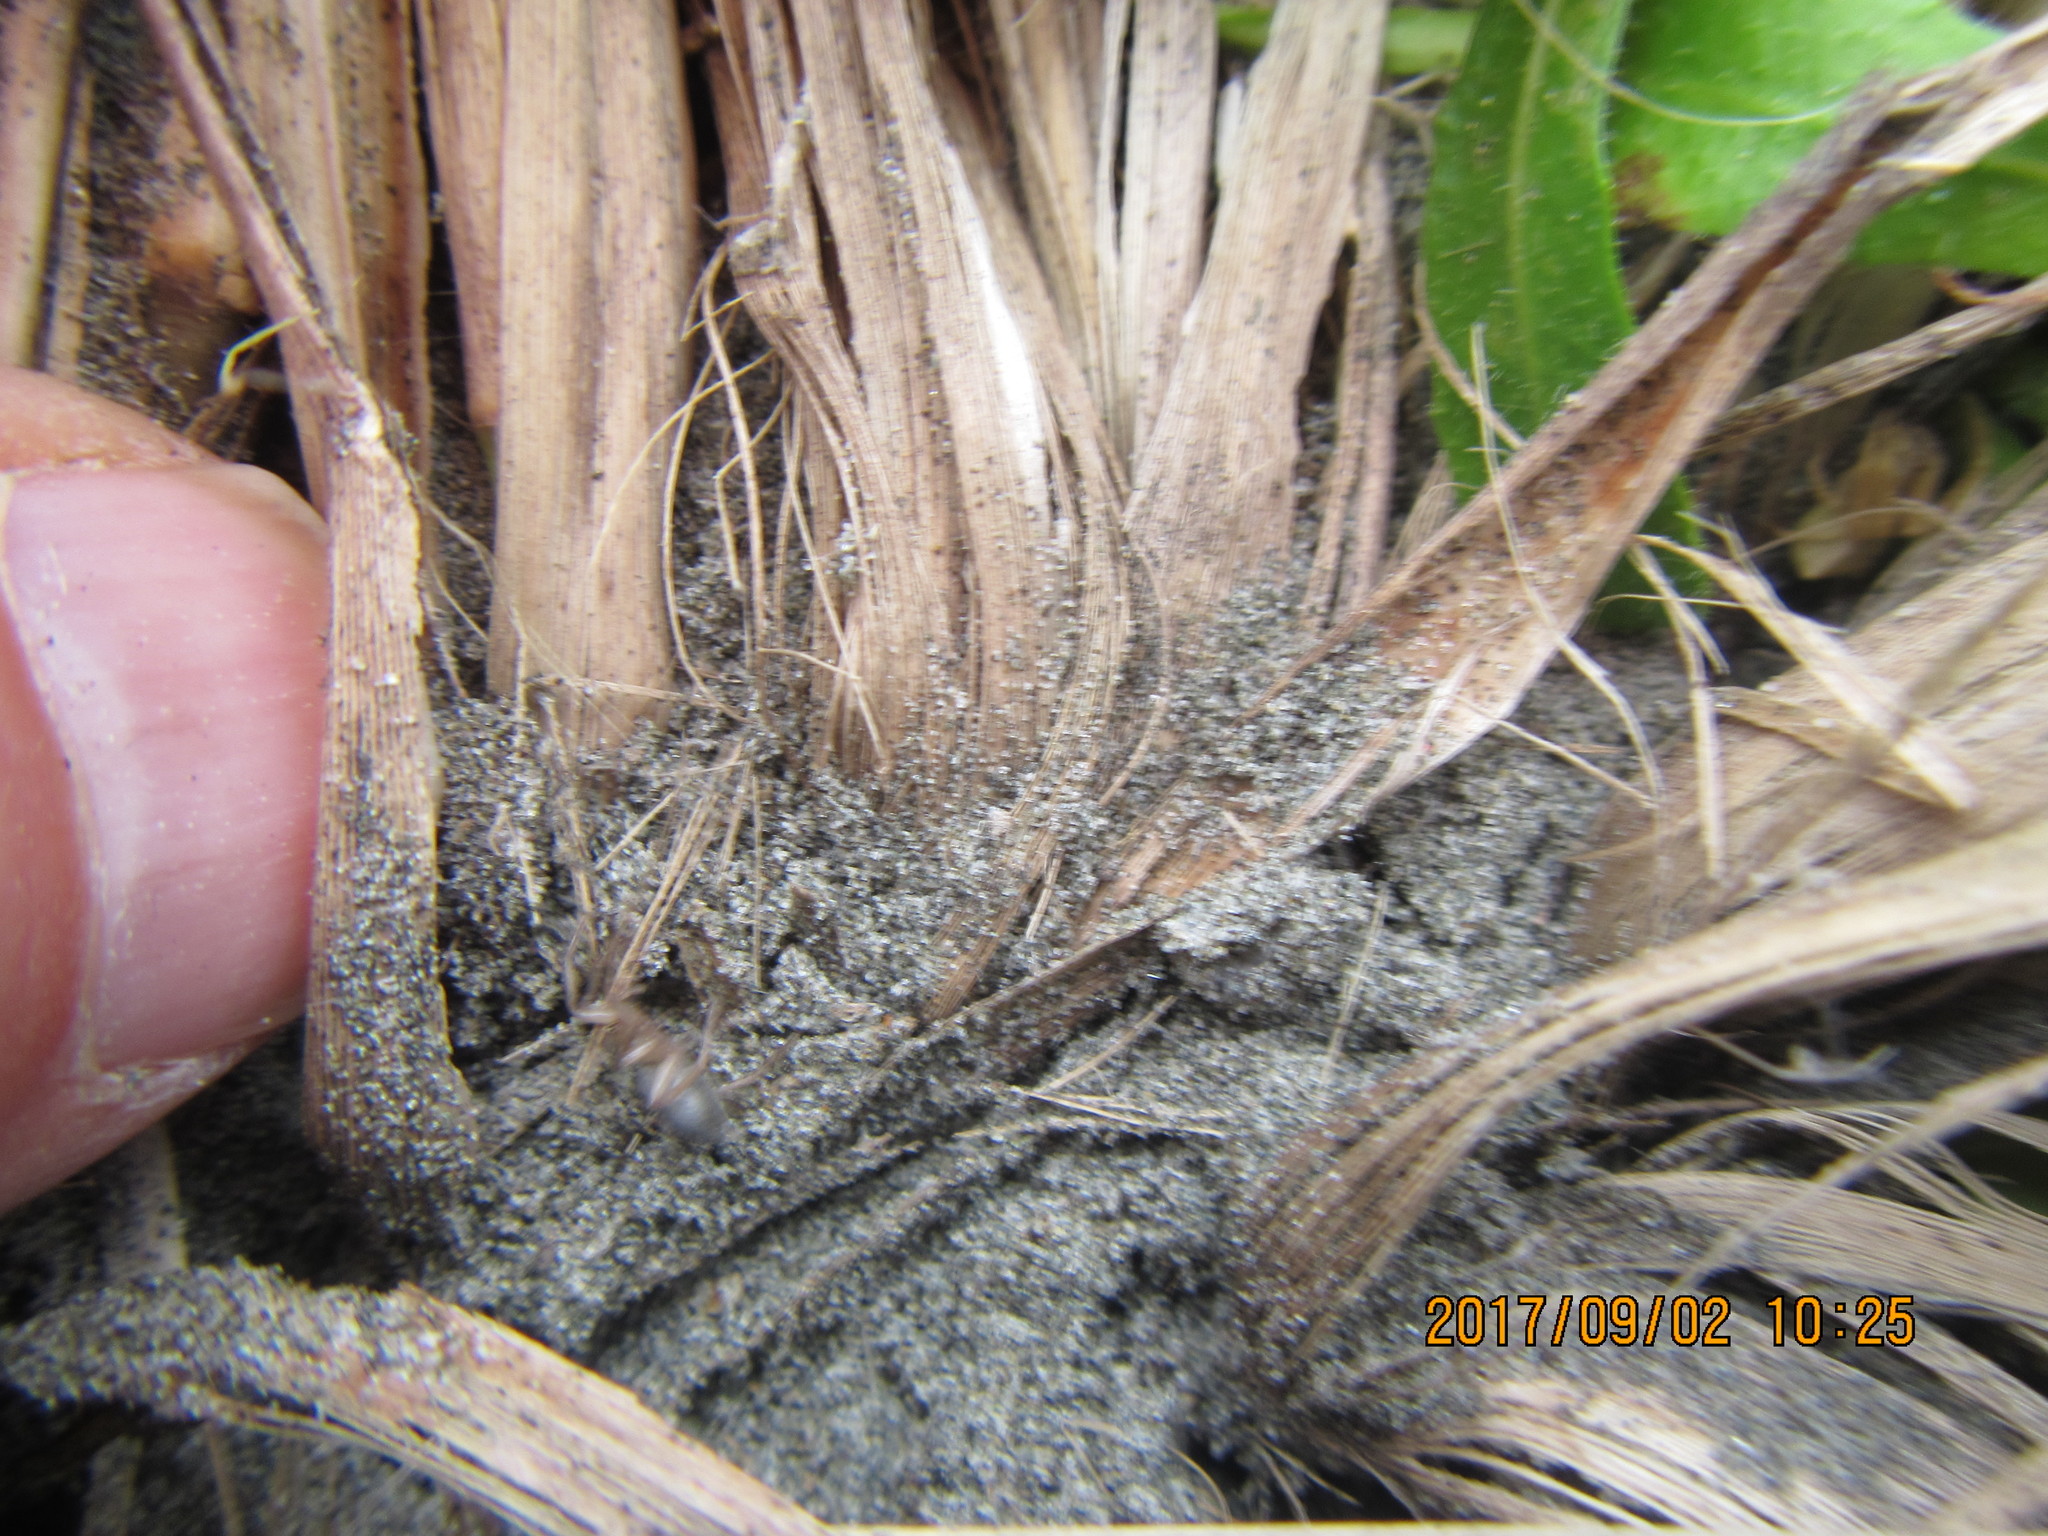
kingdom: Animalia
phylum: Arthropoda
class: Arachnida
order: Araneae
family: Gnaphosidae
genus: Anzacia
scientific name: Anzacia gemmea
